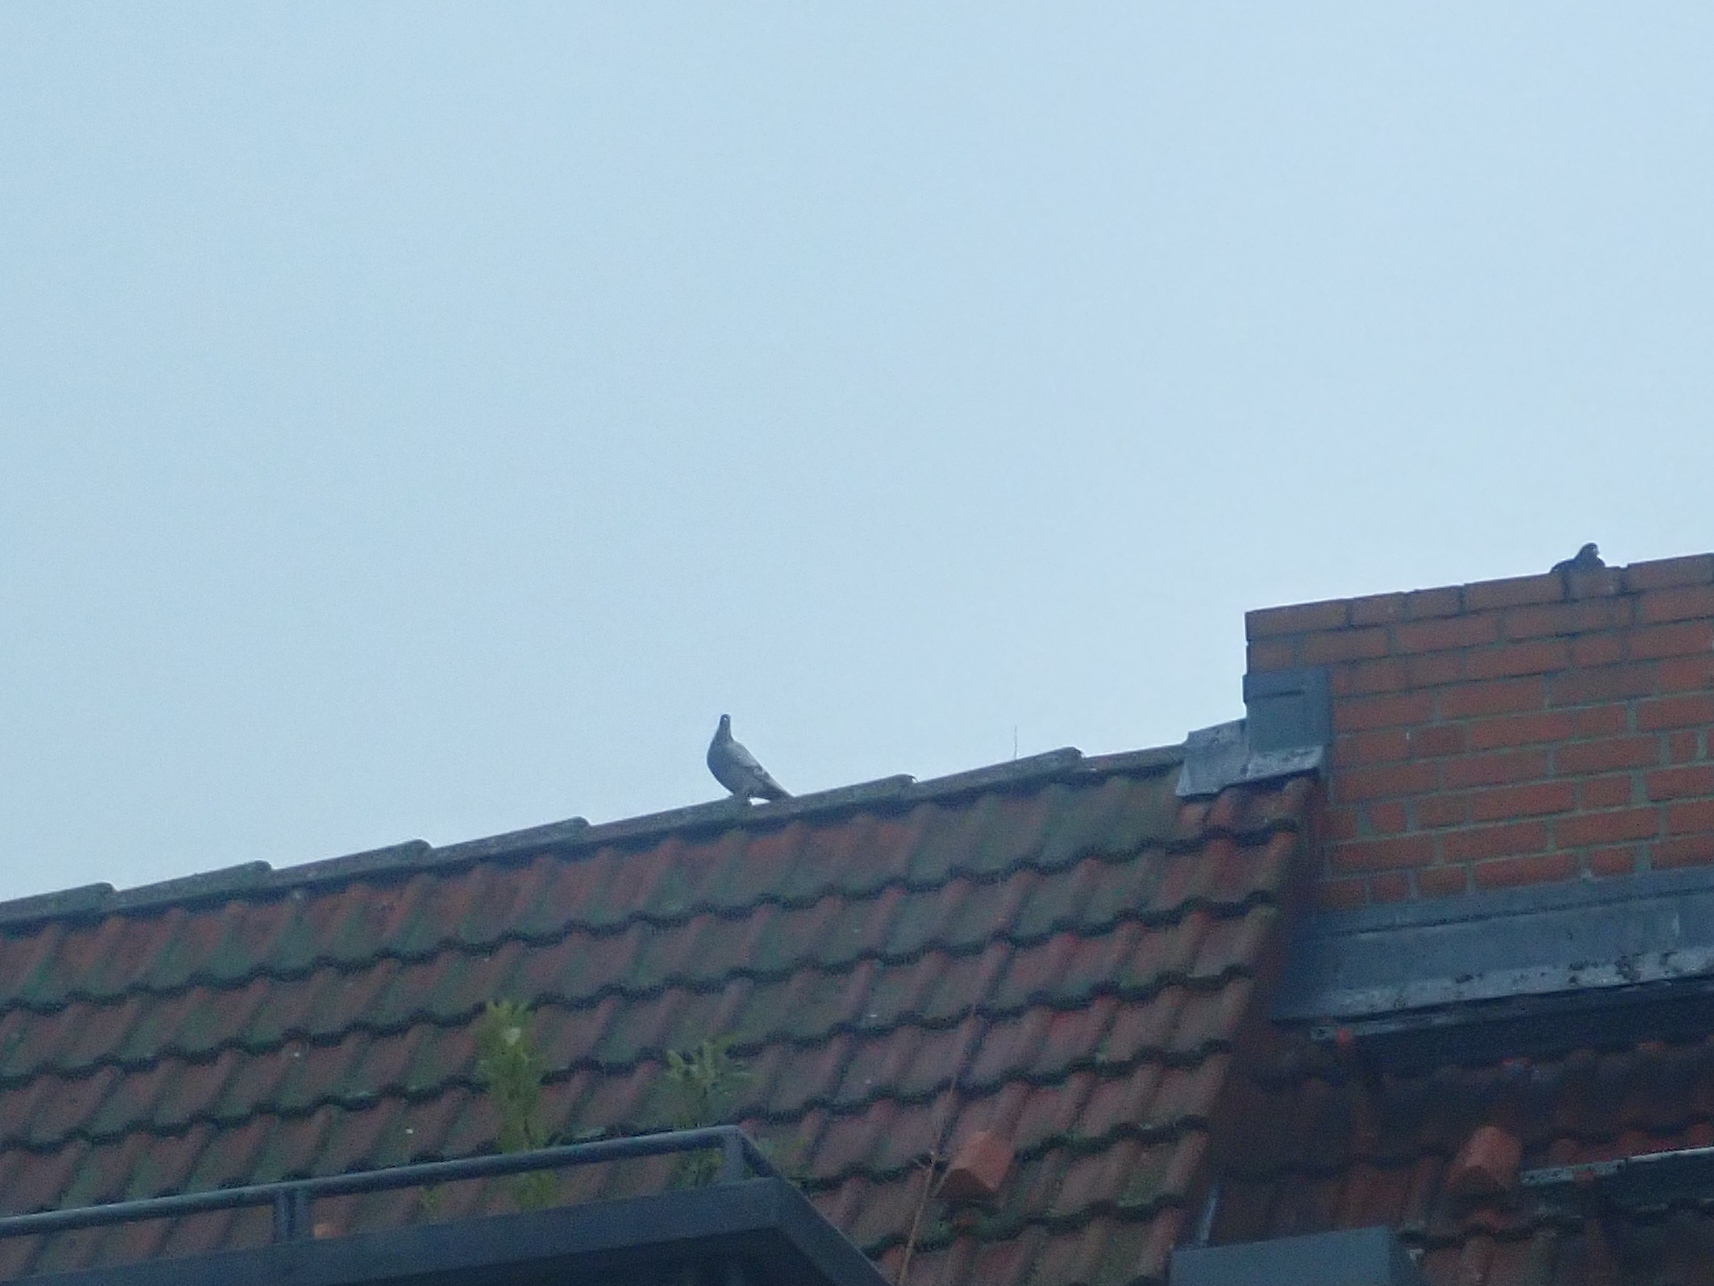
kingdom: Animalia
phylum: Chordata
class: Aves
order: Columbiformes
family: Columbidae
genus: Columba
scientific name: Columba livia
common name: Rock pigeon
